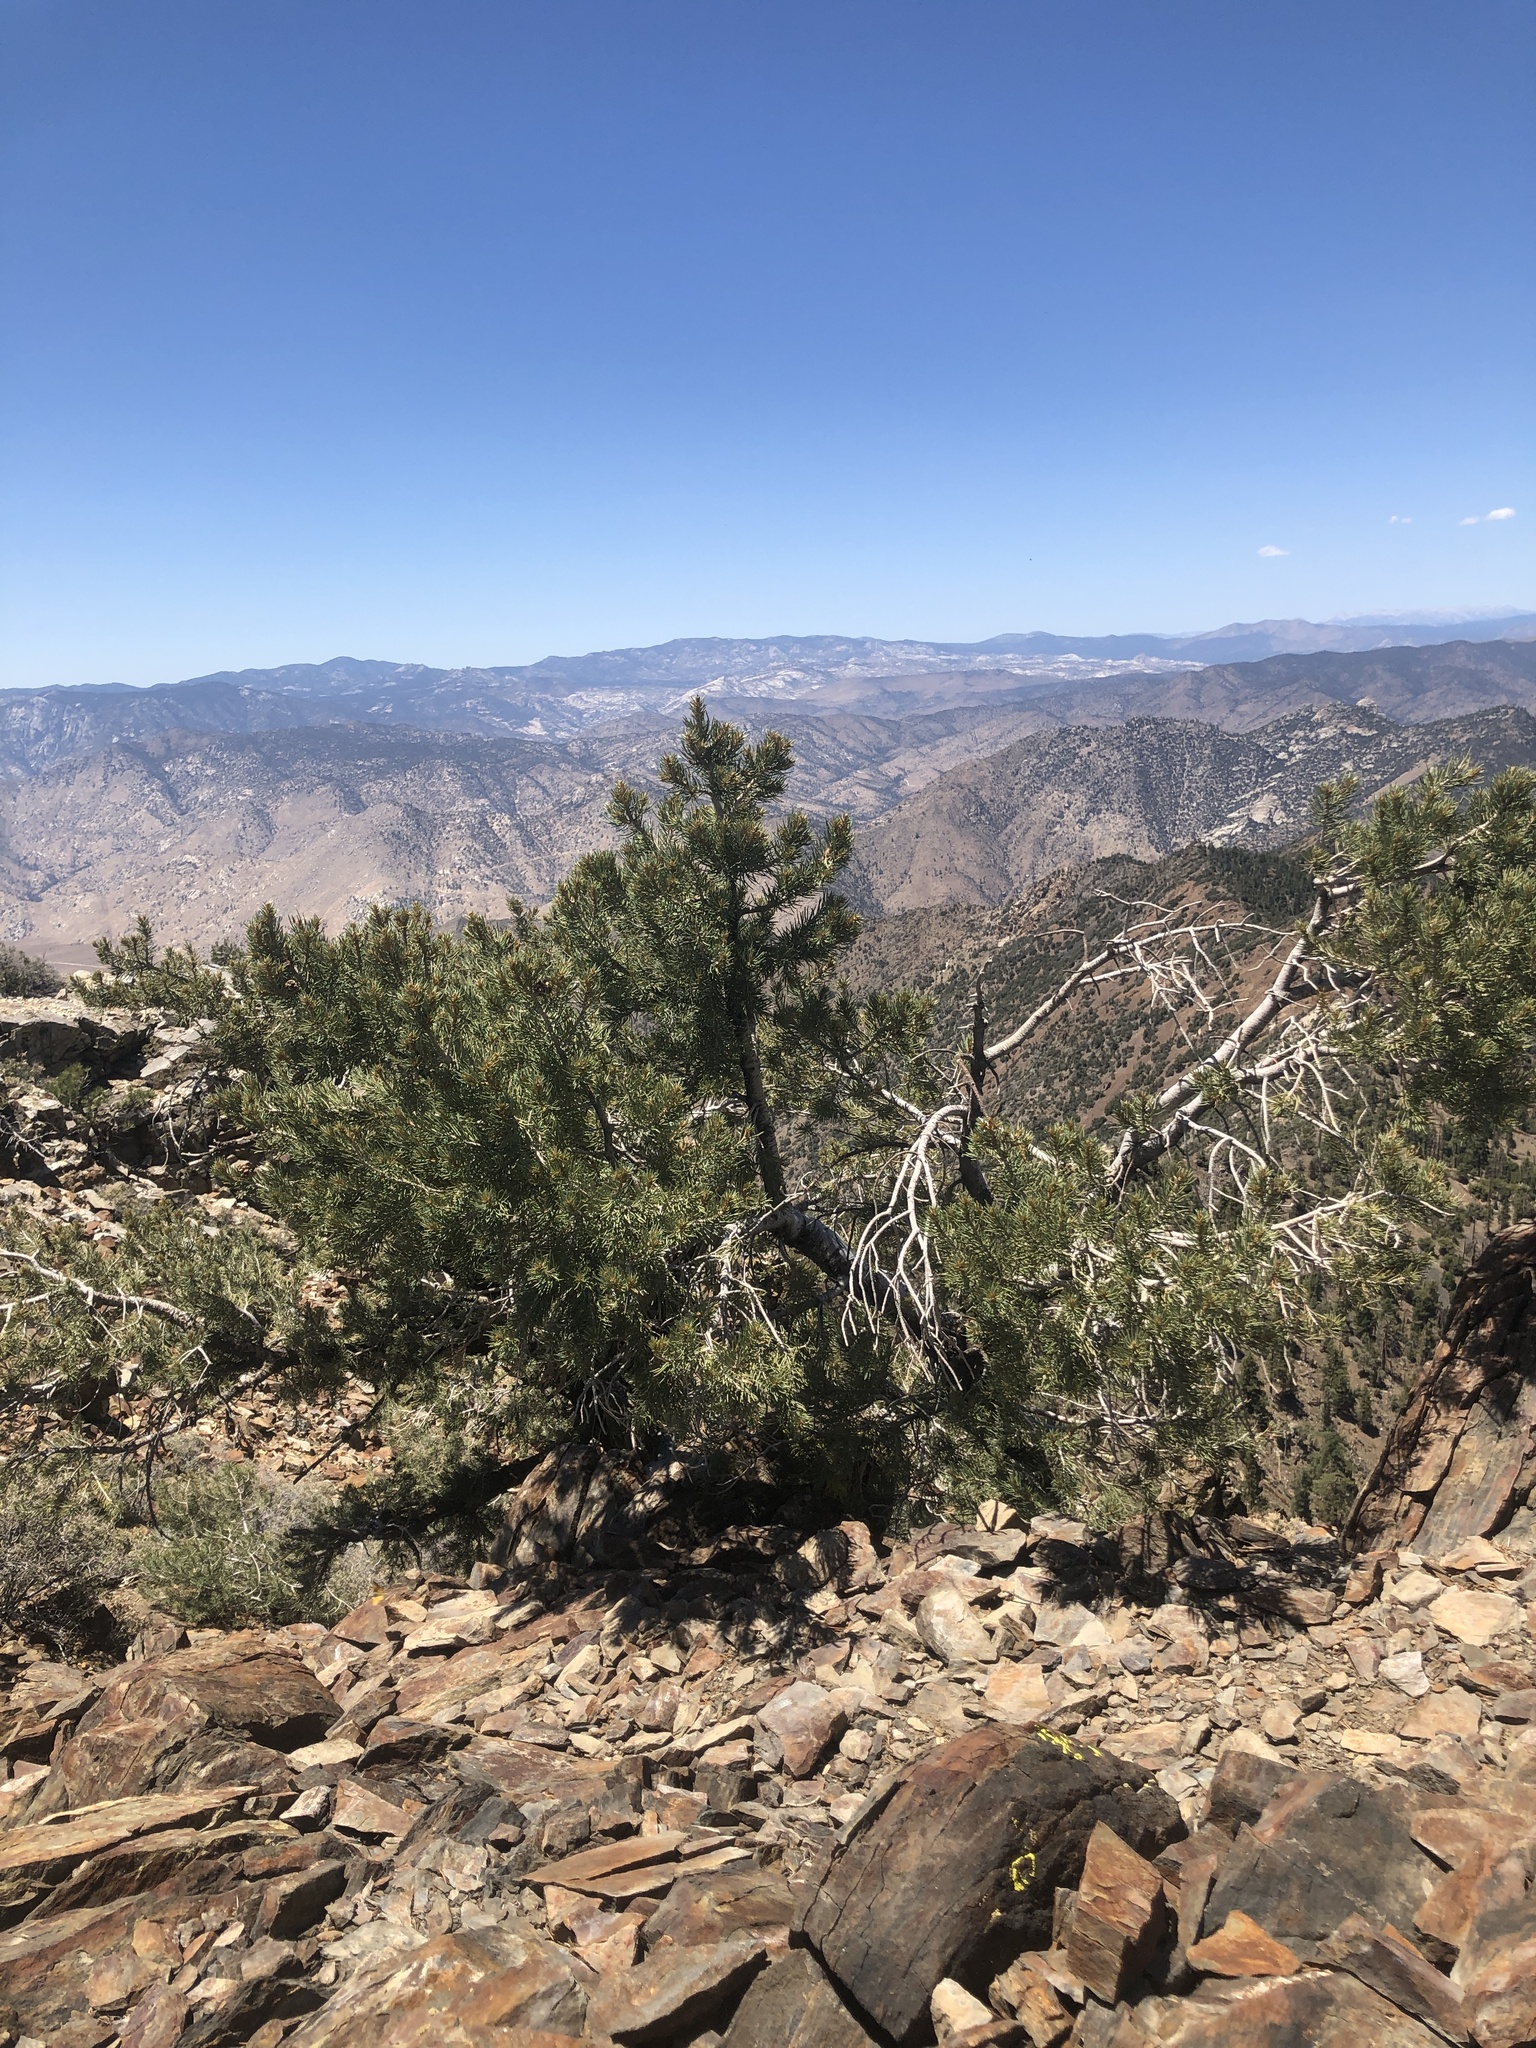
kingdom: Plantae
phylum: Tracheophyta
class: Pinopsida
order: Pinales
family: Pinaceae
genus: Pinus
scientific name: Pinus monophylla
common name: One-leaved nut pine
